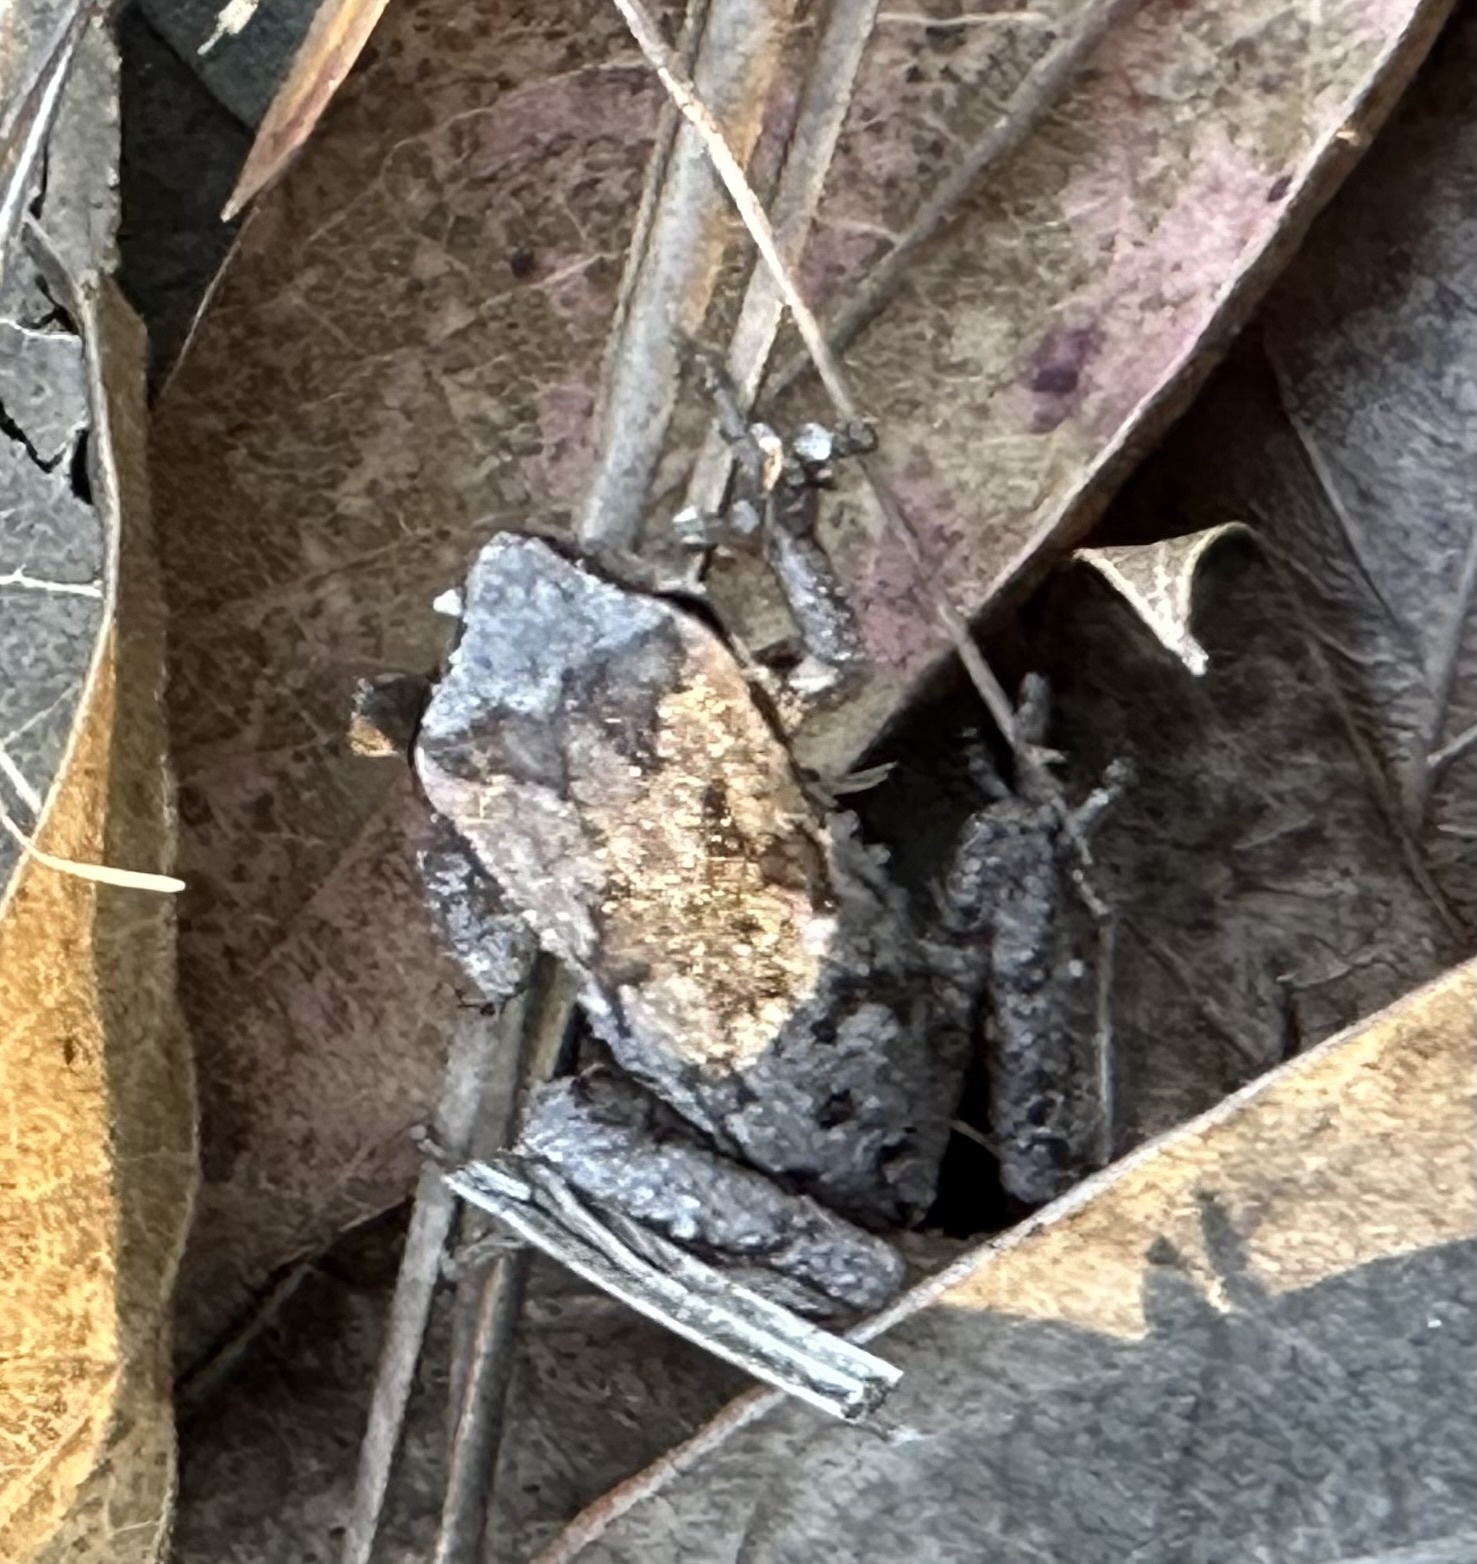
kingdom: Animalia
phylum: Chordata
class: Amphibia
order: Anura
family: Hylidae
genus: Hyla
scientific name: Hyla femoralis
